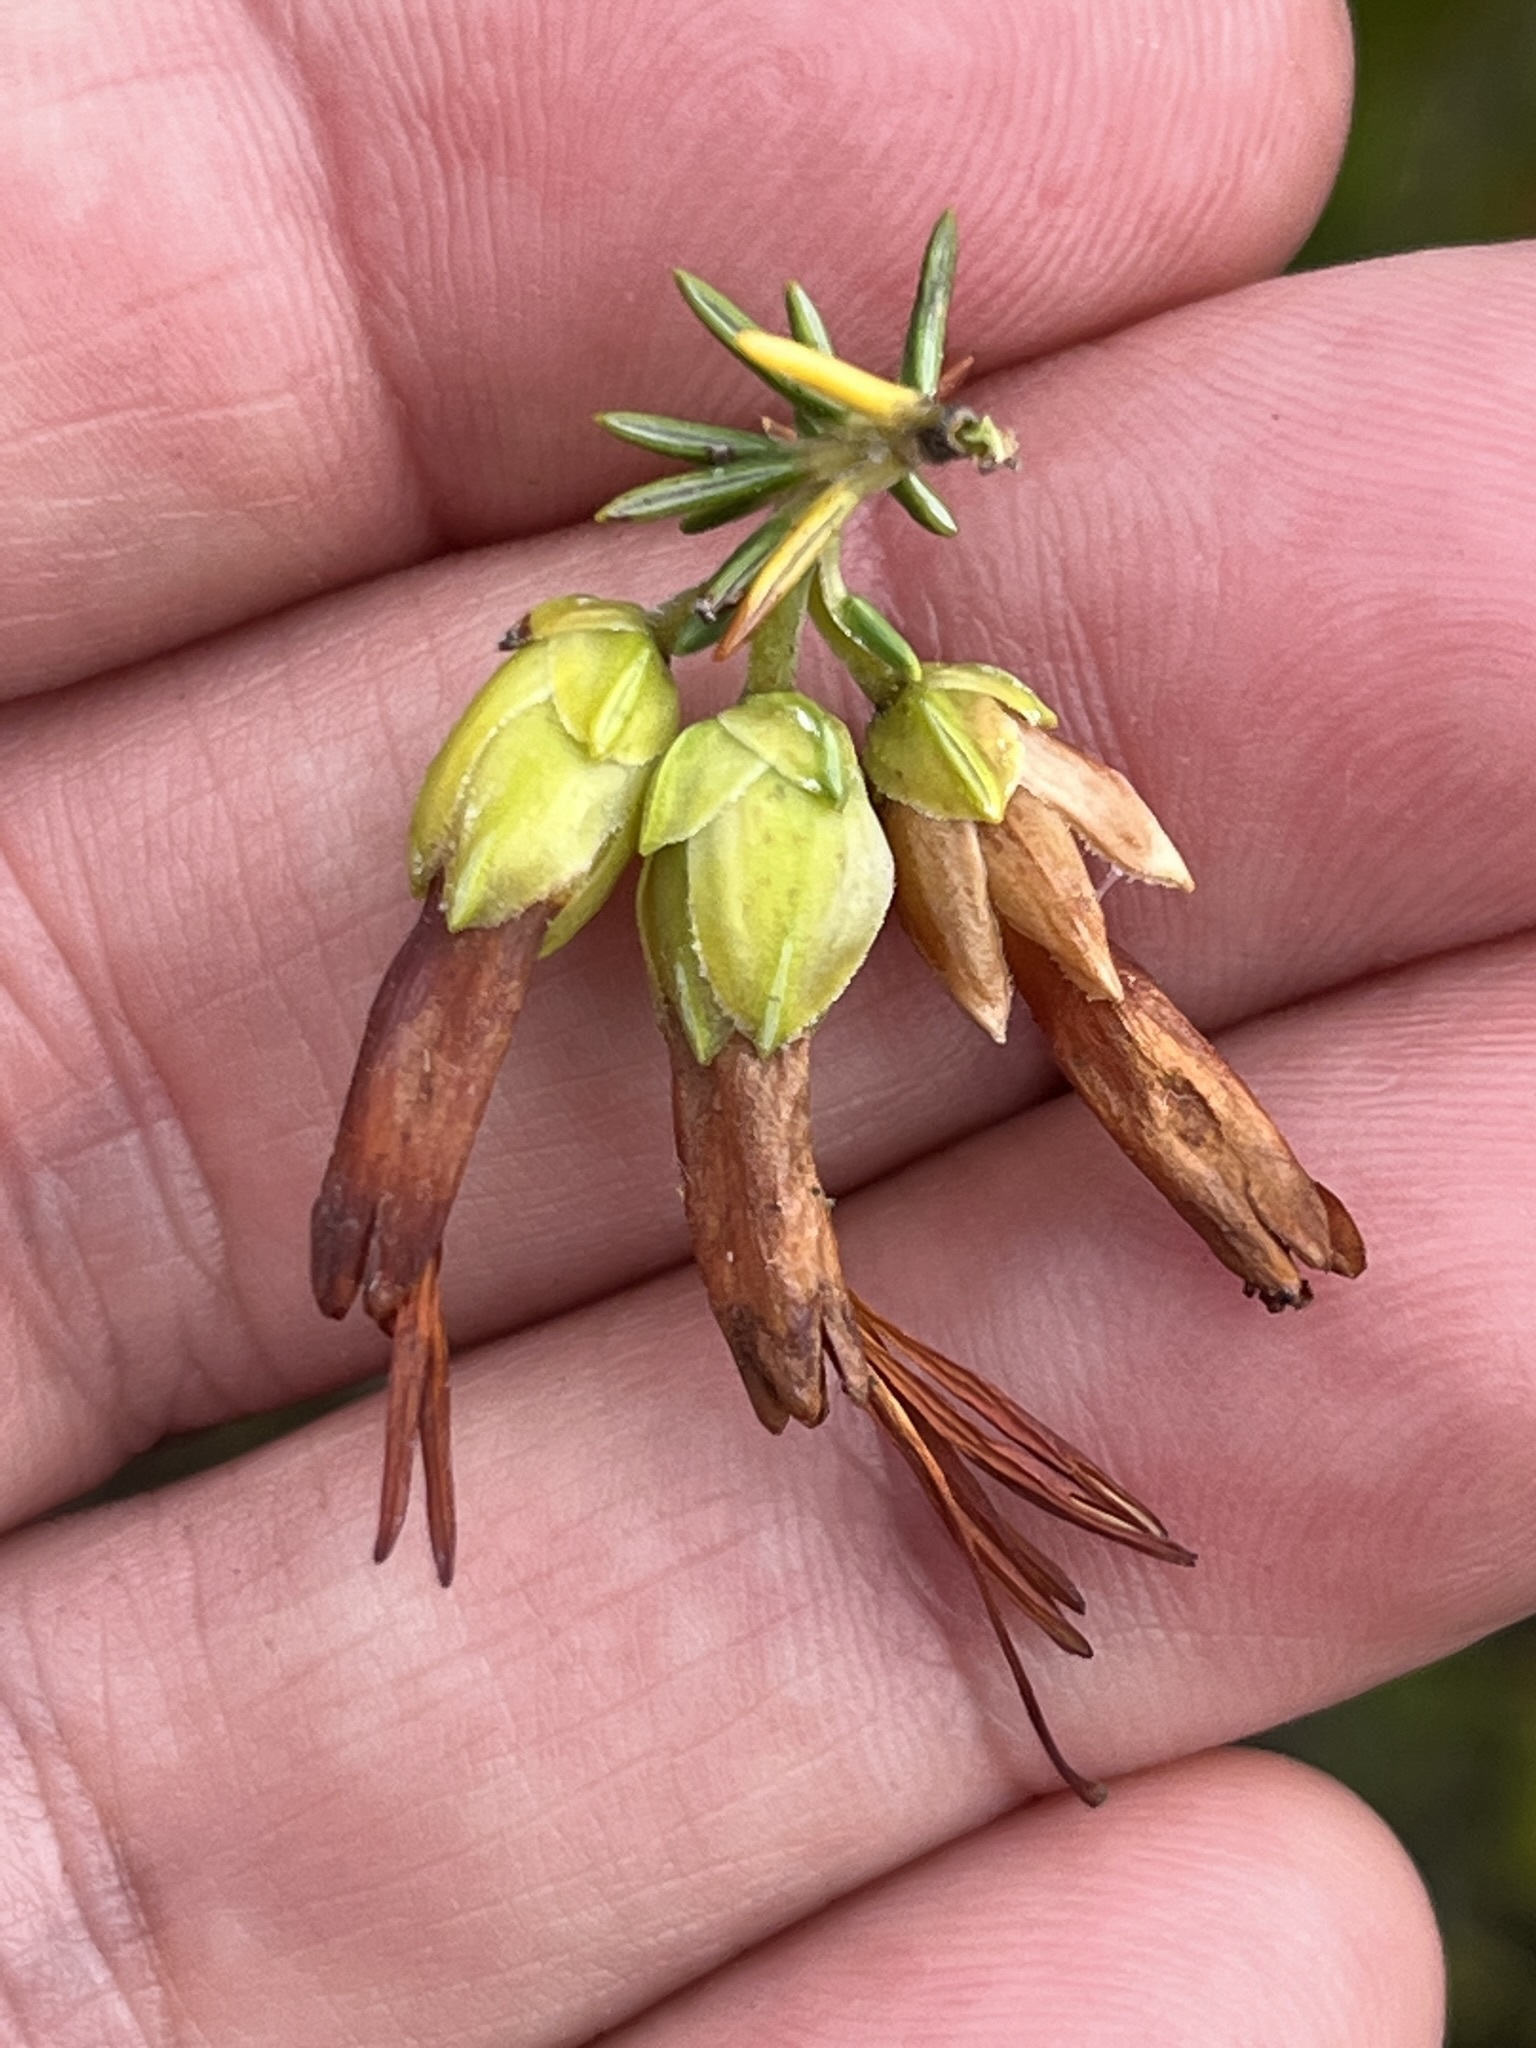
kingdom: Plantae
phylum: Tracheophyta
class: Magnoliopsida
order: Ericales
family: Ericaceae
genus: Erica
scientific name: Erica coccinea
